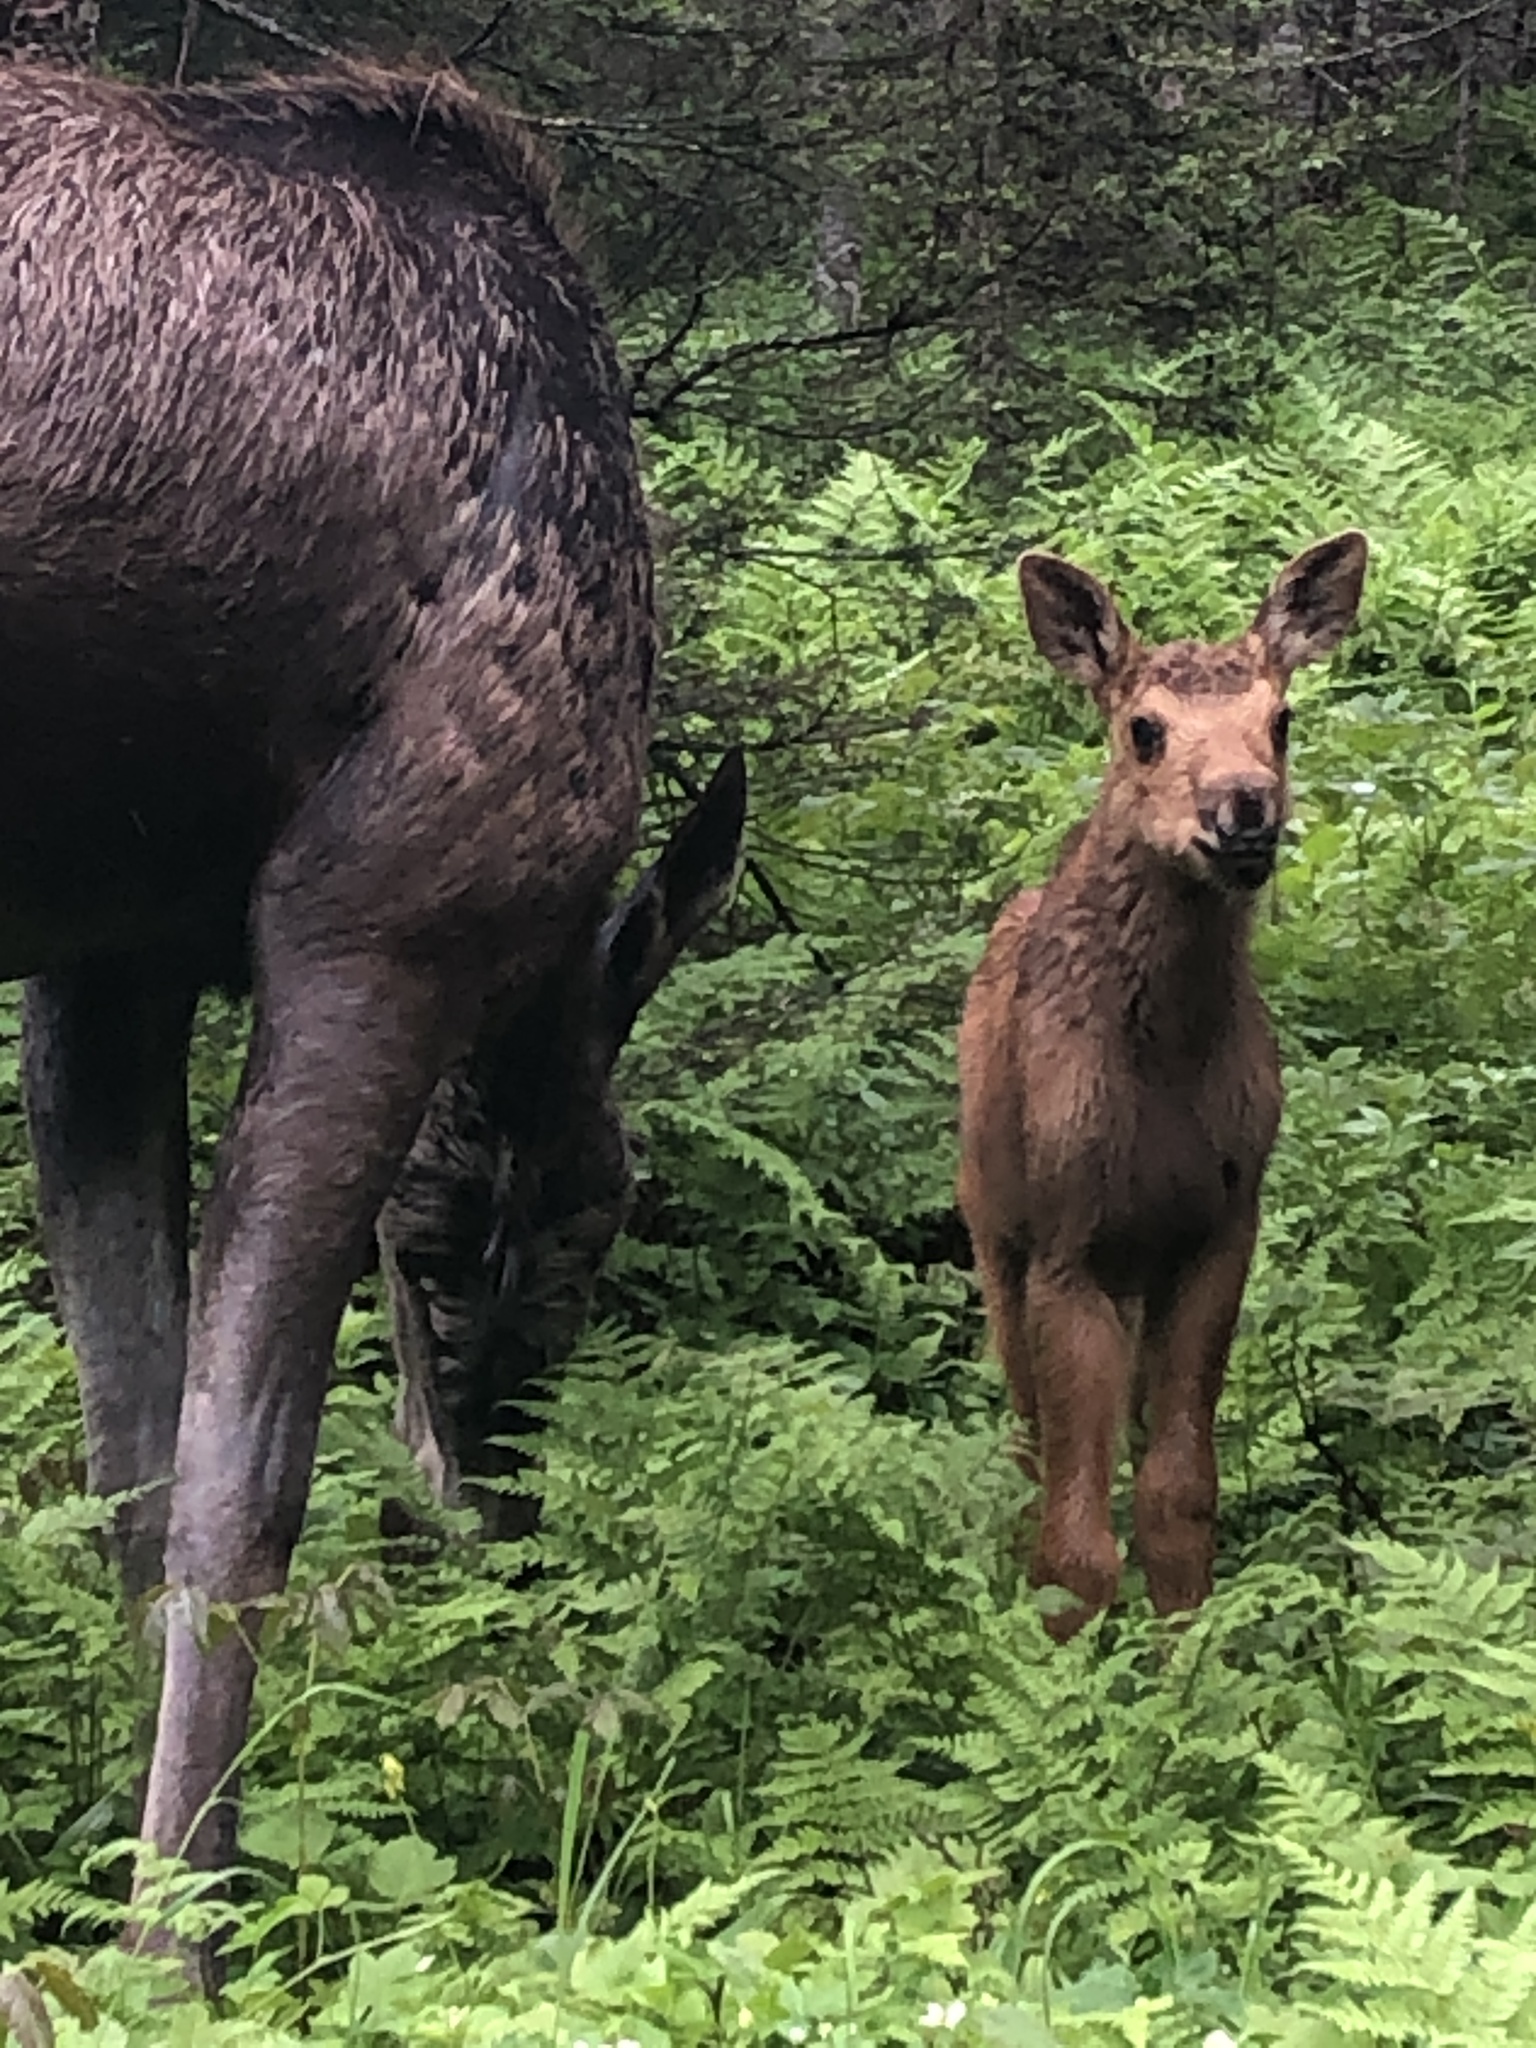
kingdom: Animalia
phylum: Chordata
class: Mammalia
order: Artiodactyla
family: Cervidae
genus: Alces
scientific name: Alces alces
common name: Moose
